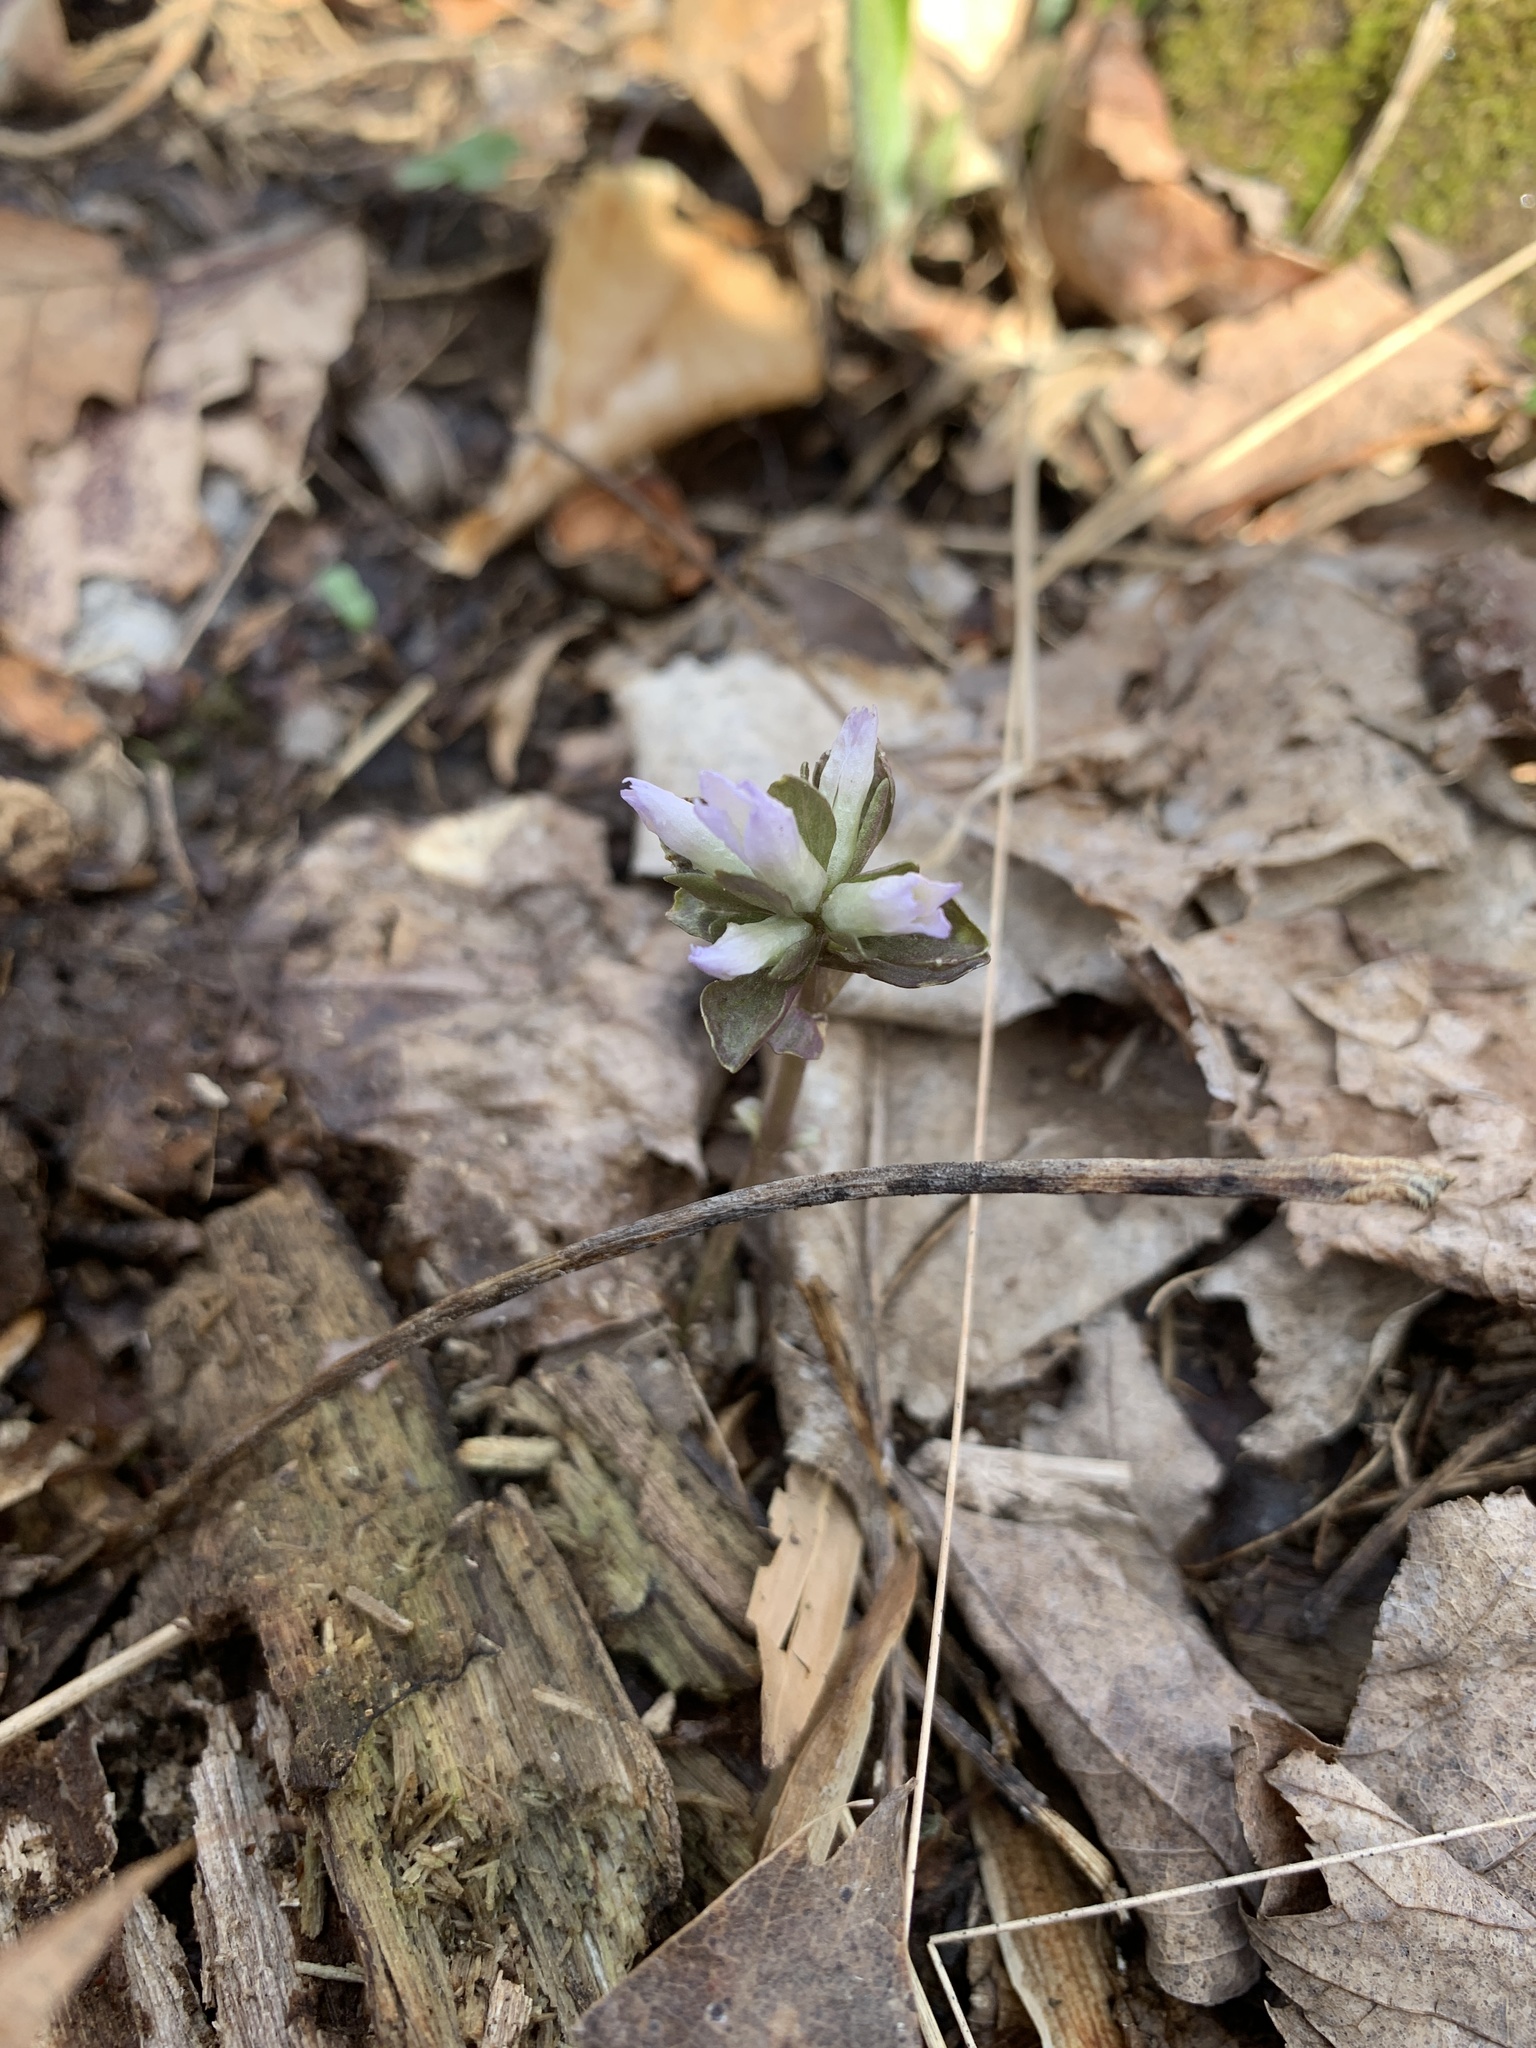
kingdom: Plantae
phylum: Tracheophyta
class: Magnoliopsida
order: Gentianales
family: Gentianaceae
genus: Obolaria
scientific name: Obolaria virginica
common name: Pennywort
